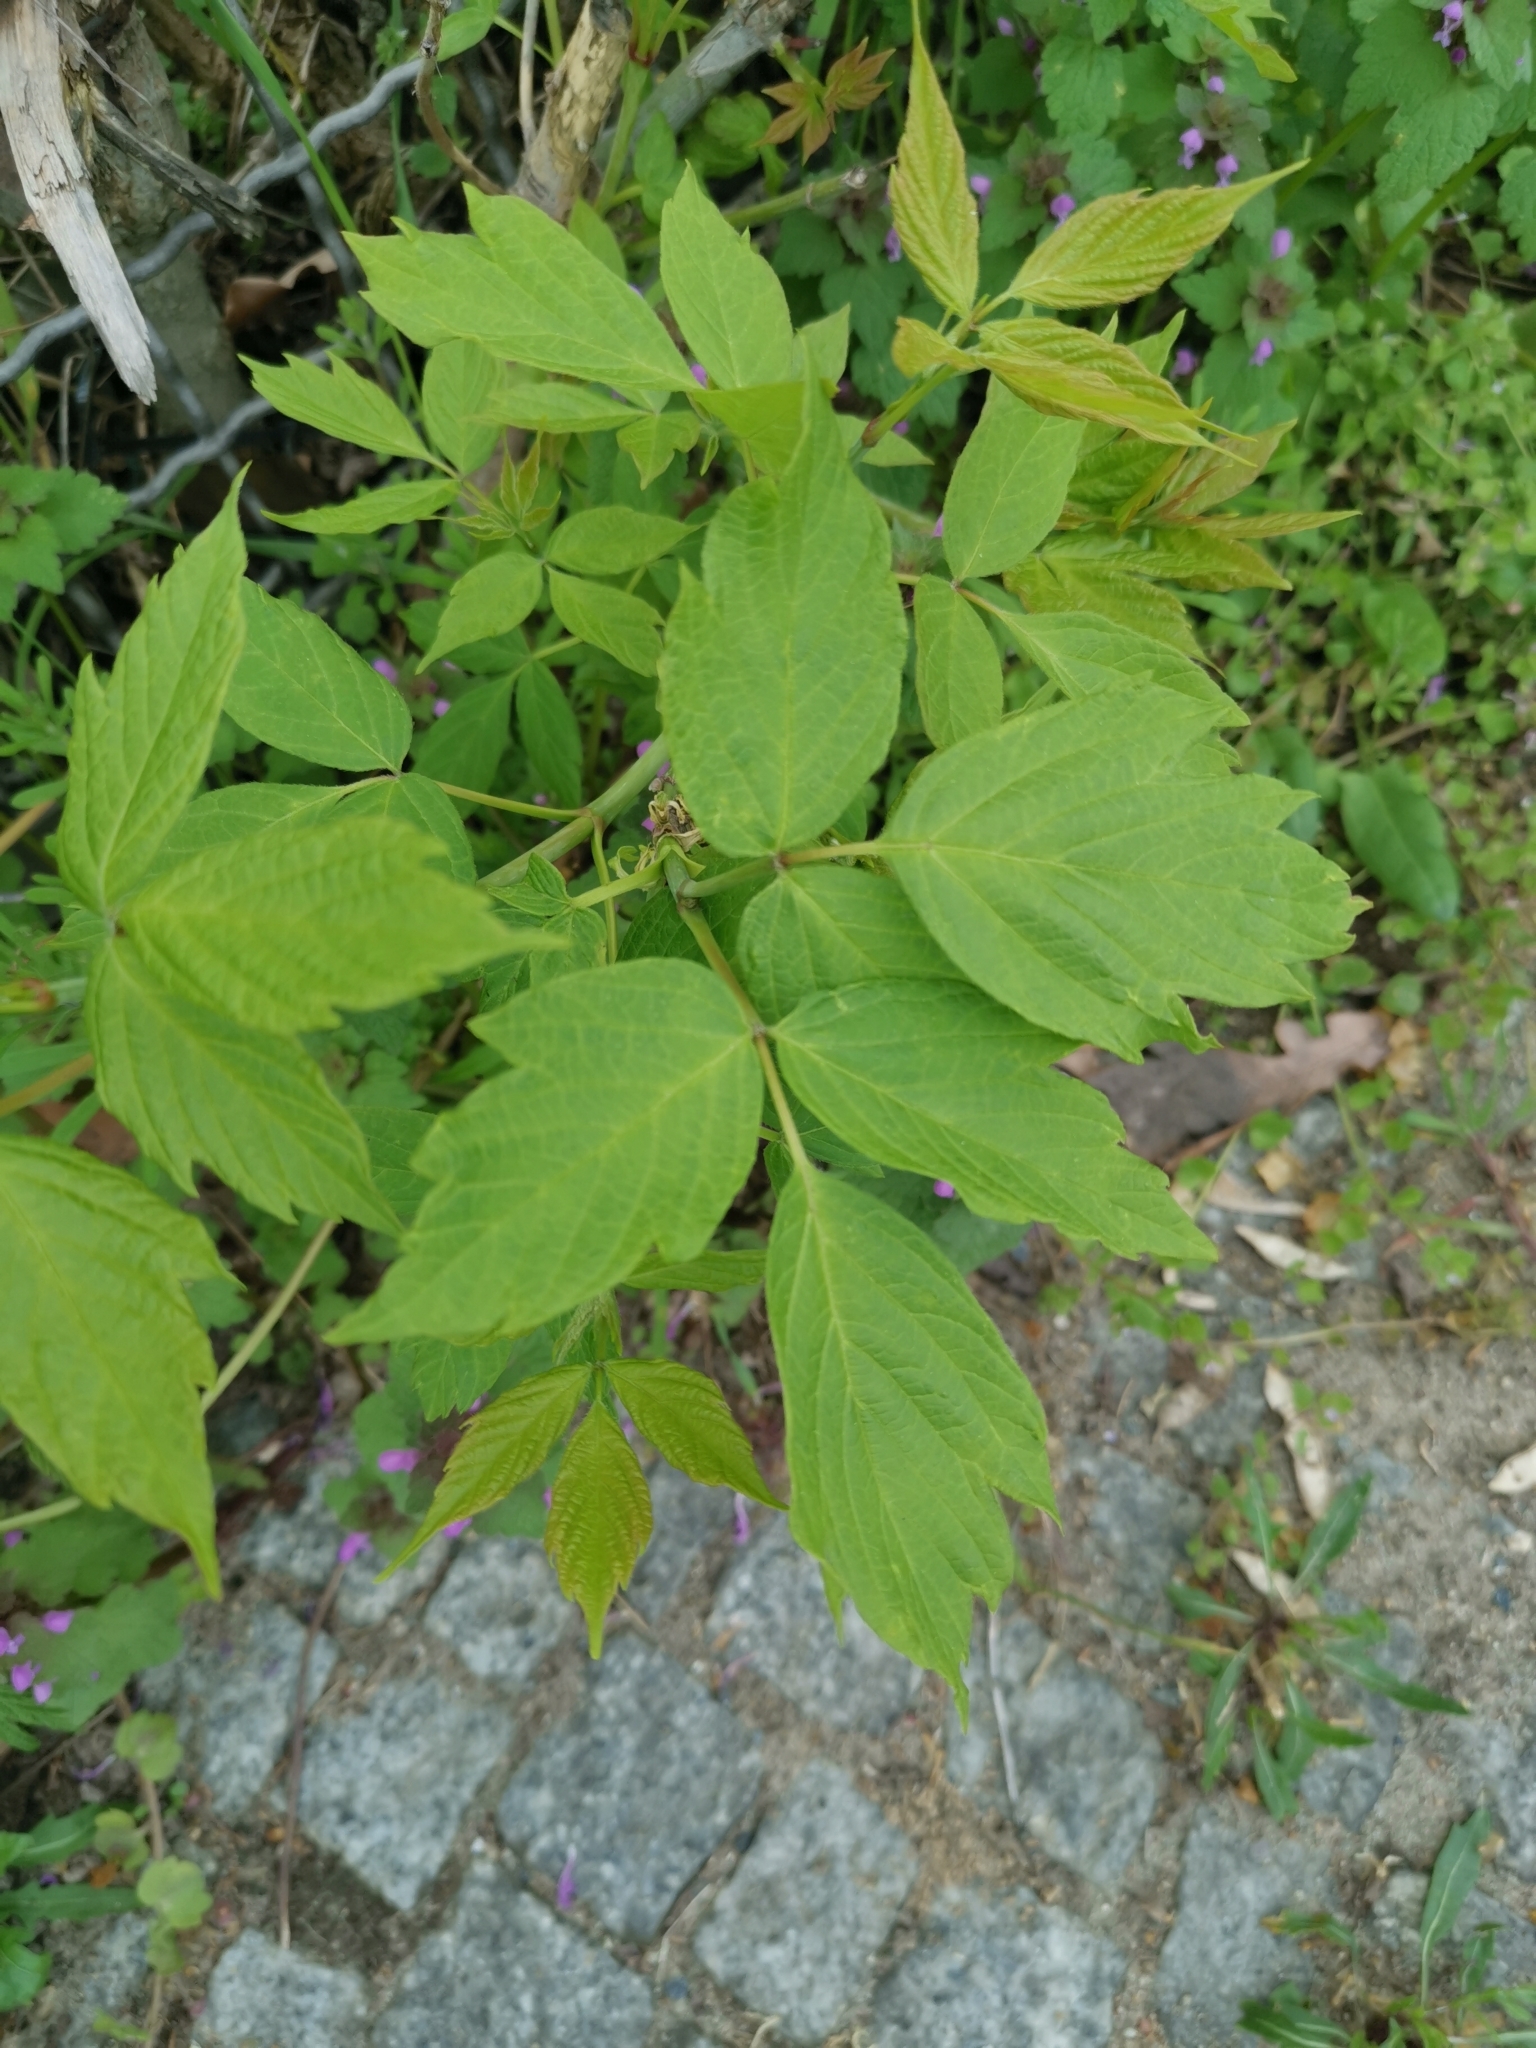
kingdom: Plantae
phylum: Tracheophyta
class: Magnoliopsida
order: Sapindales
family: Sapindaceae
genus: Acer
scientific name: Acer negundo
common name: Ashleaf maple
